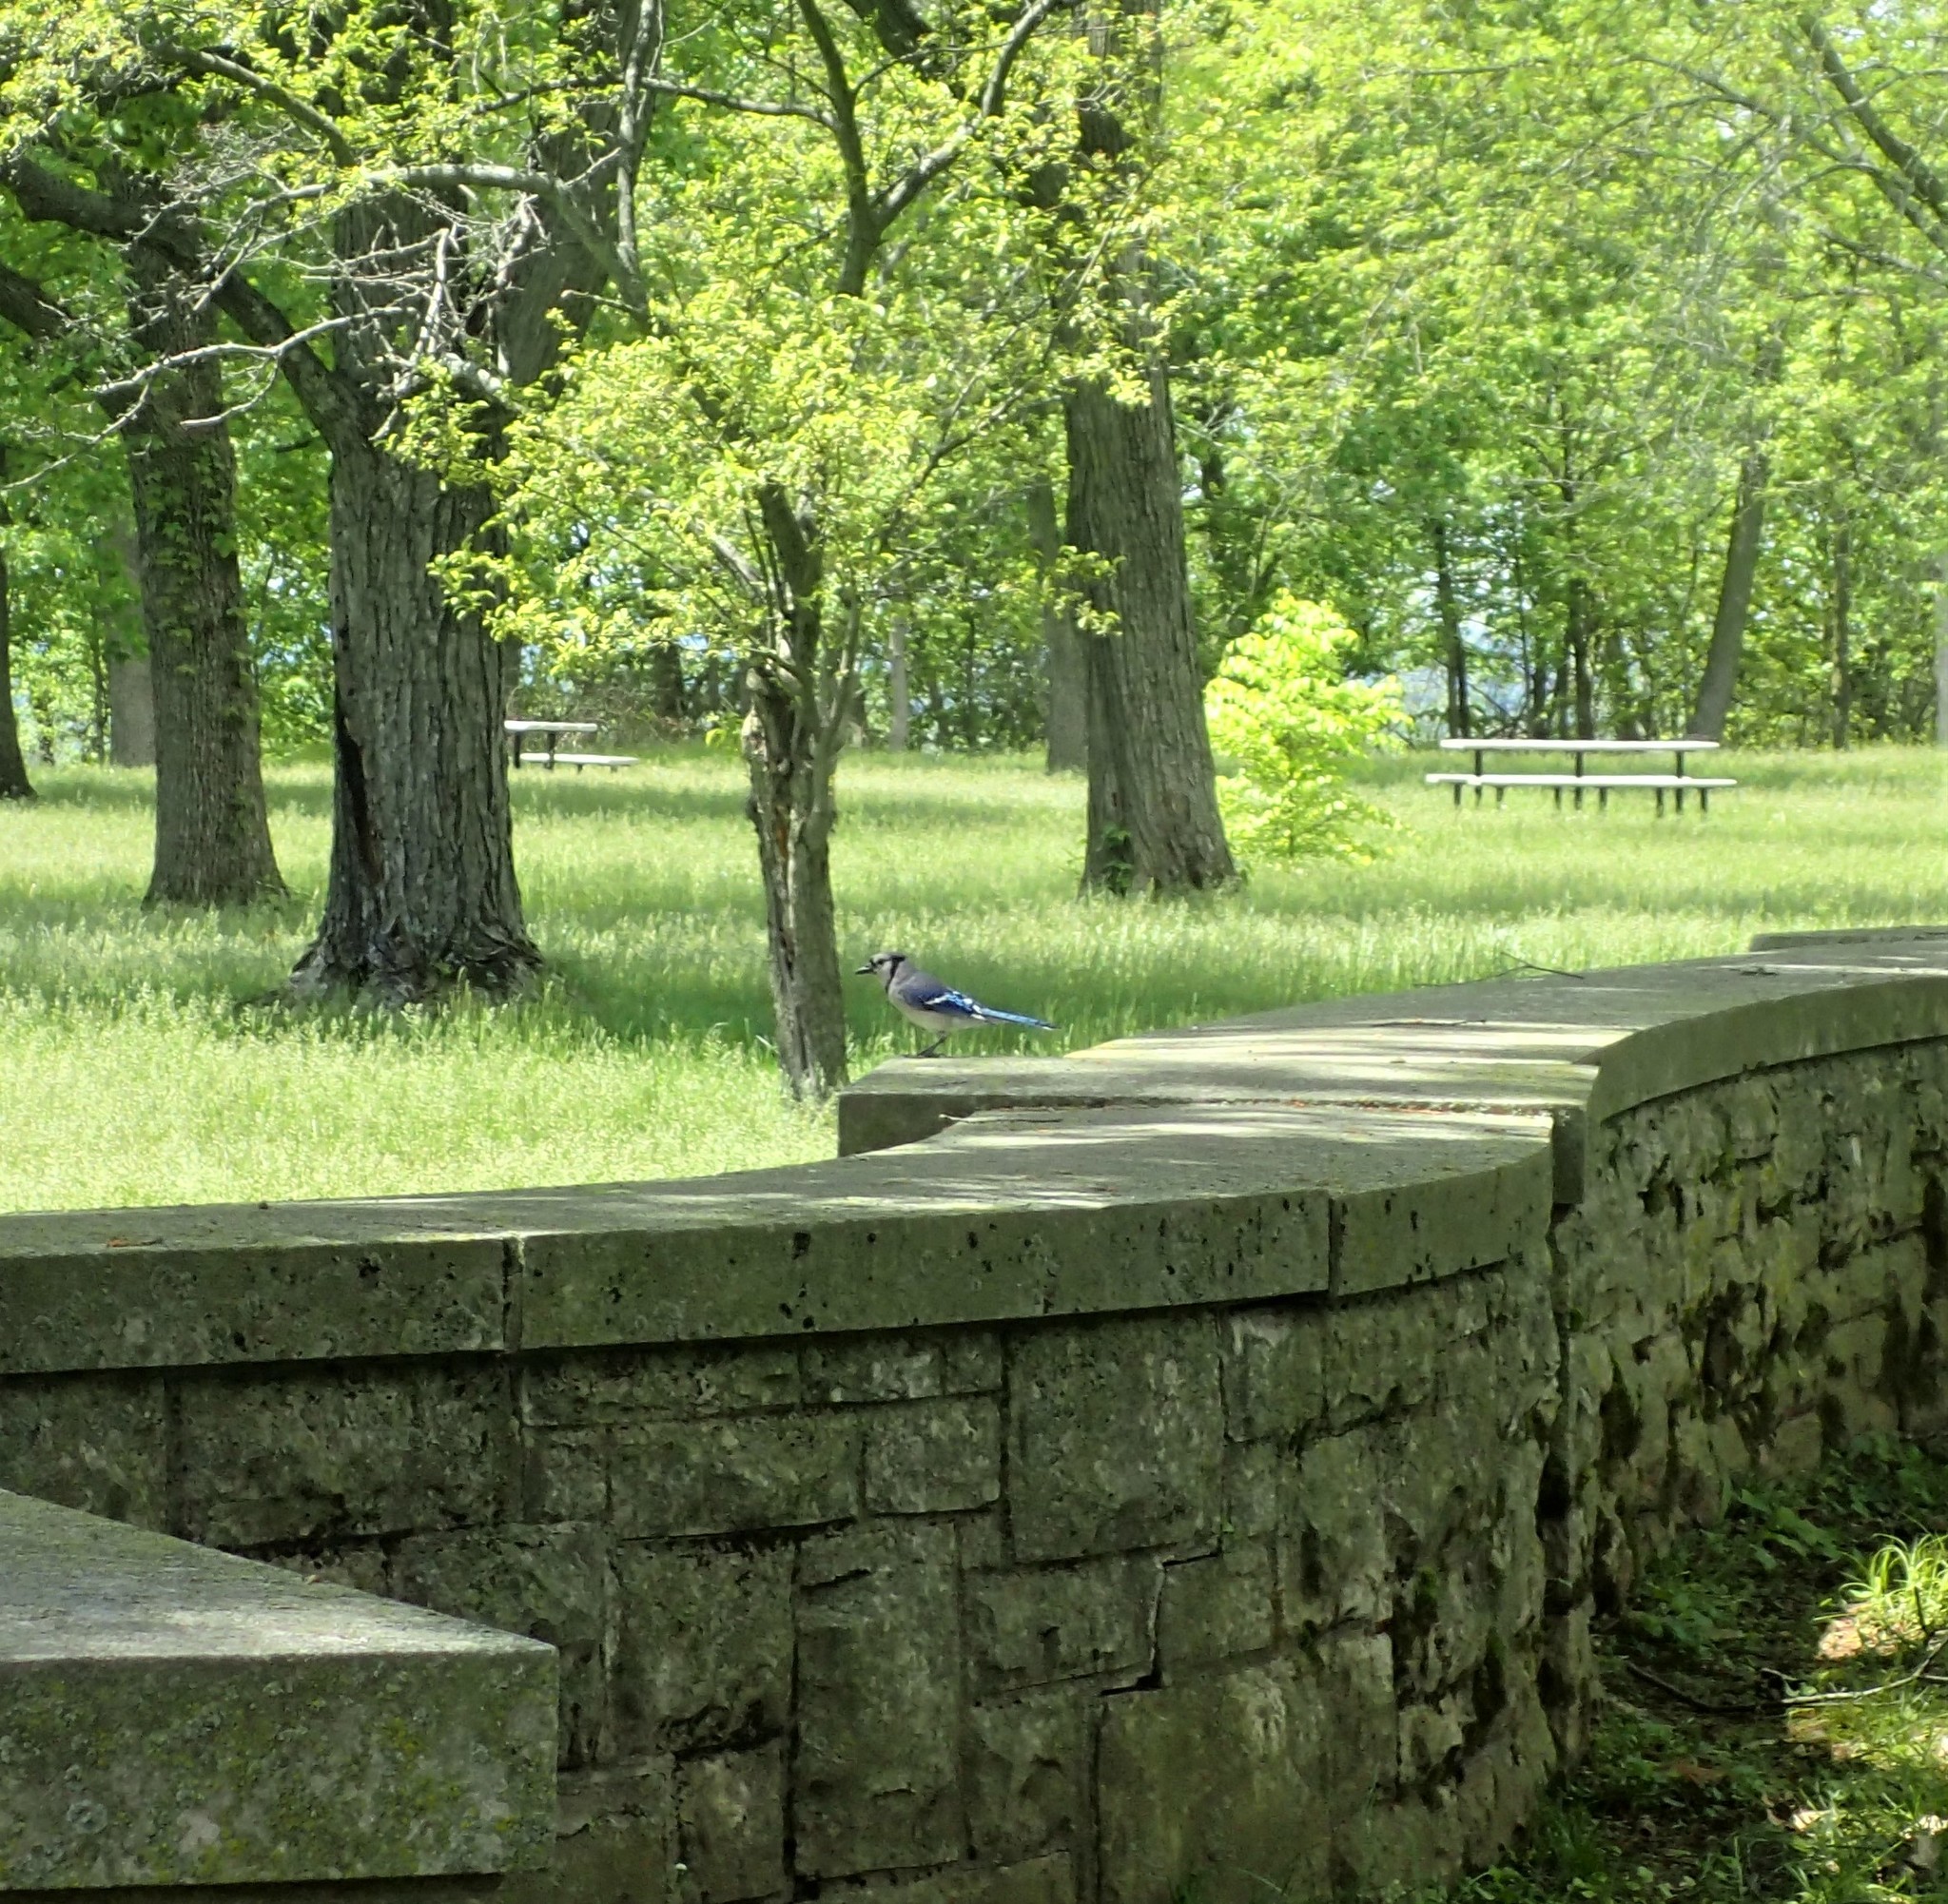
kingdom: Animalia
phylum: Chordata
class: Aves
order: Passeriformes
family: Corvidae
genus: Cyanocitta
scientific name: Cyanocitta cristata
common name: Blue jay
